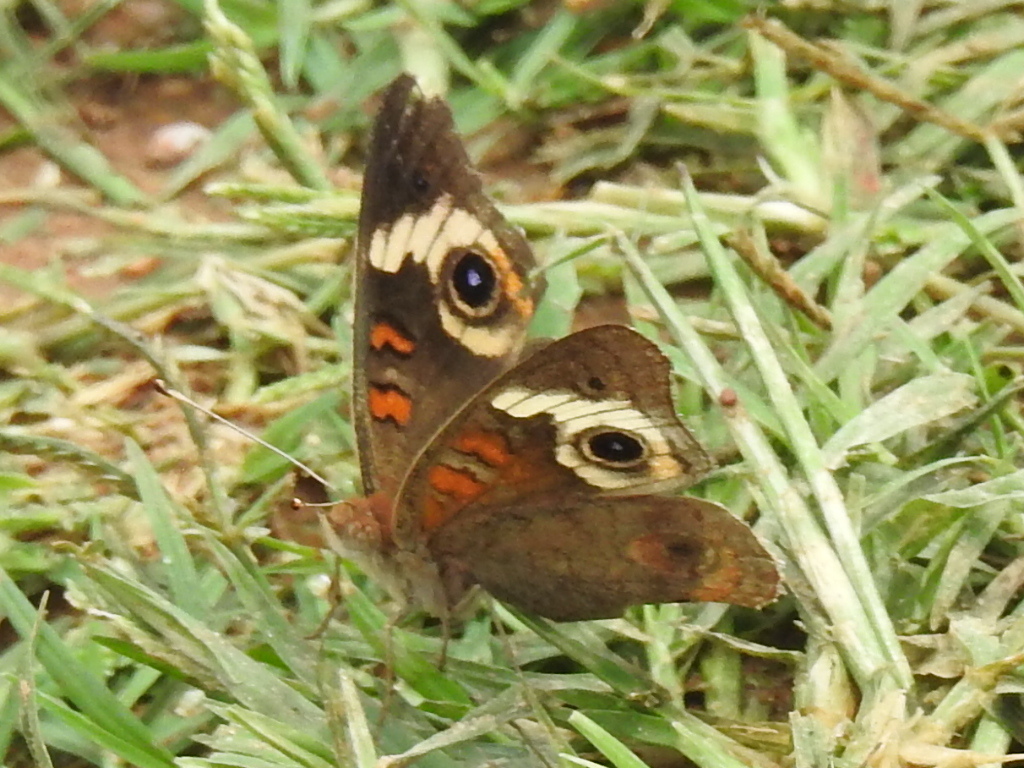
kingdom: Animalia
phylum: Arthropoda
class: Insecta
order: Lepidoptera
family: Nymphalidae
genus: Junonia
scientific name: Junonia coenia
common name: Common buckeye
